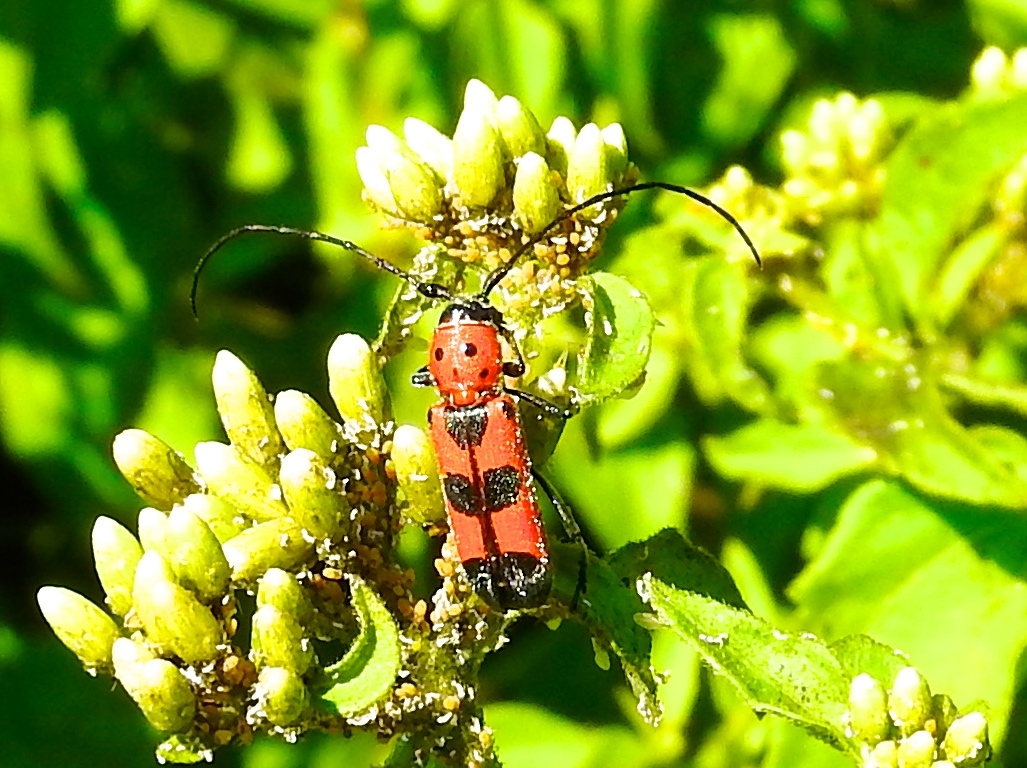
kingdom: Animalia
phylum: Arthropoda
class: Insecta
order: Coleoptera
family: Cerambycidae
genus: Tylosis
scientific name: Tylosis puncticollis
